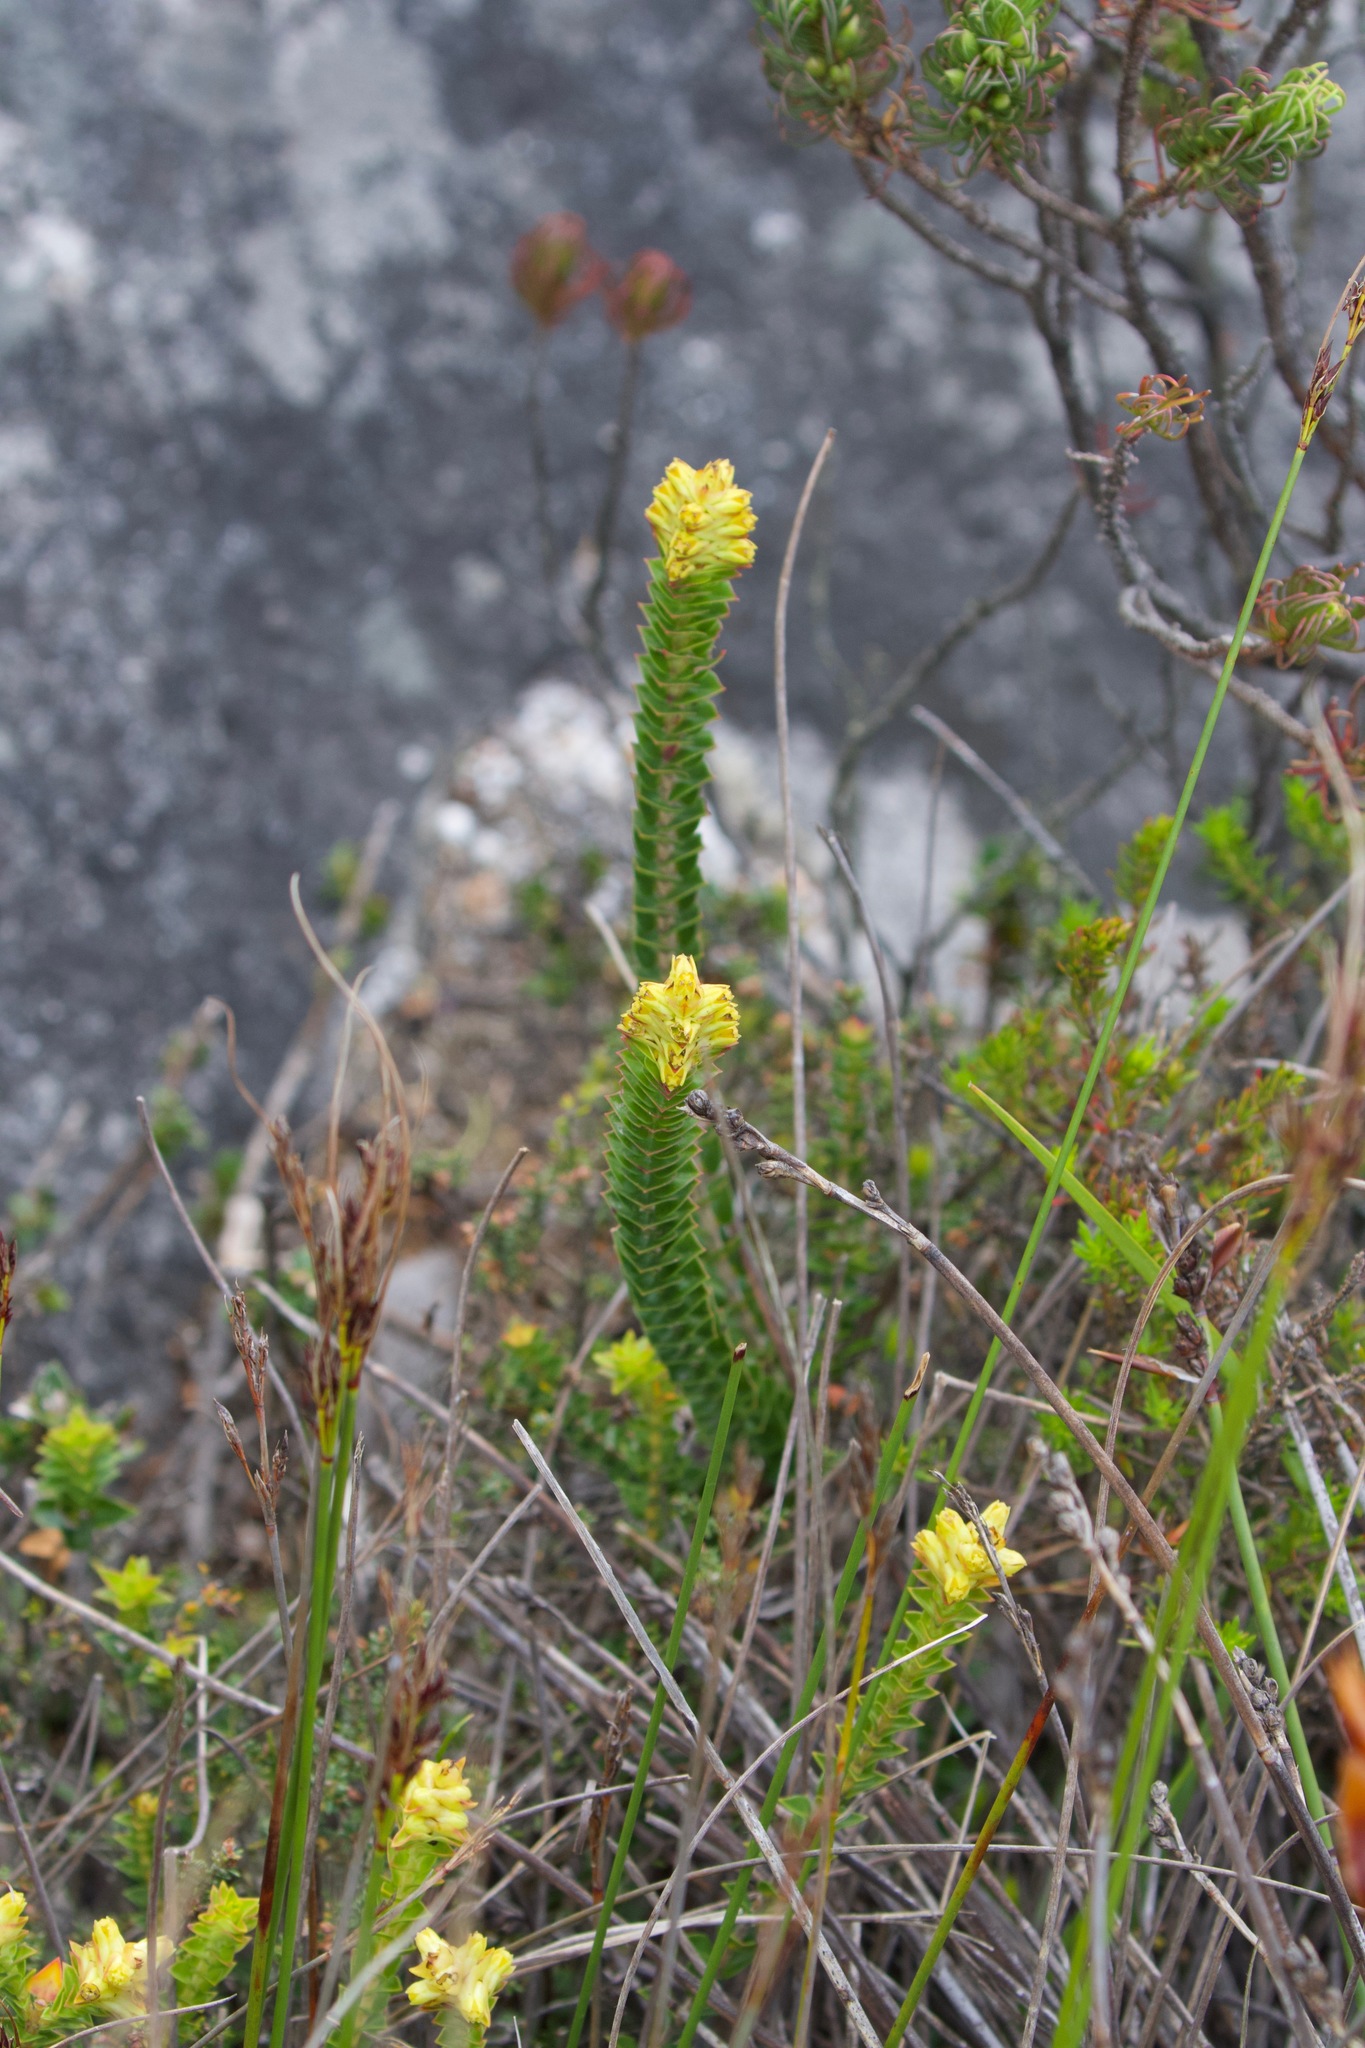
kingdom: Plantae
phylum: Tracheophyta
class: Magnoliopsida
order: Myrtales
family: Penaeaceae
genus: Penaea
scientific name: Penaea mucronata
